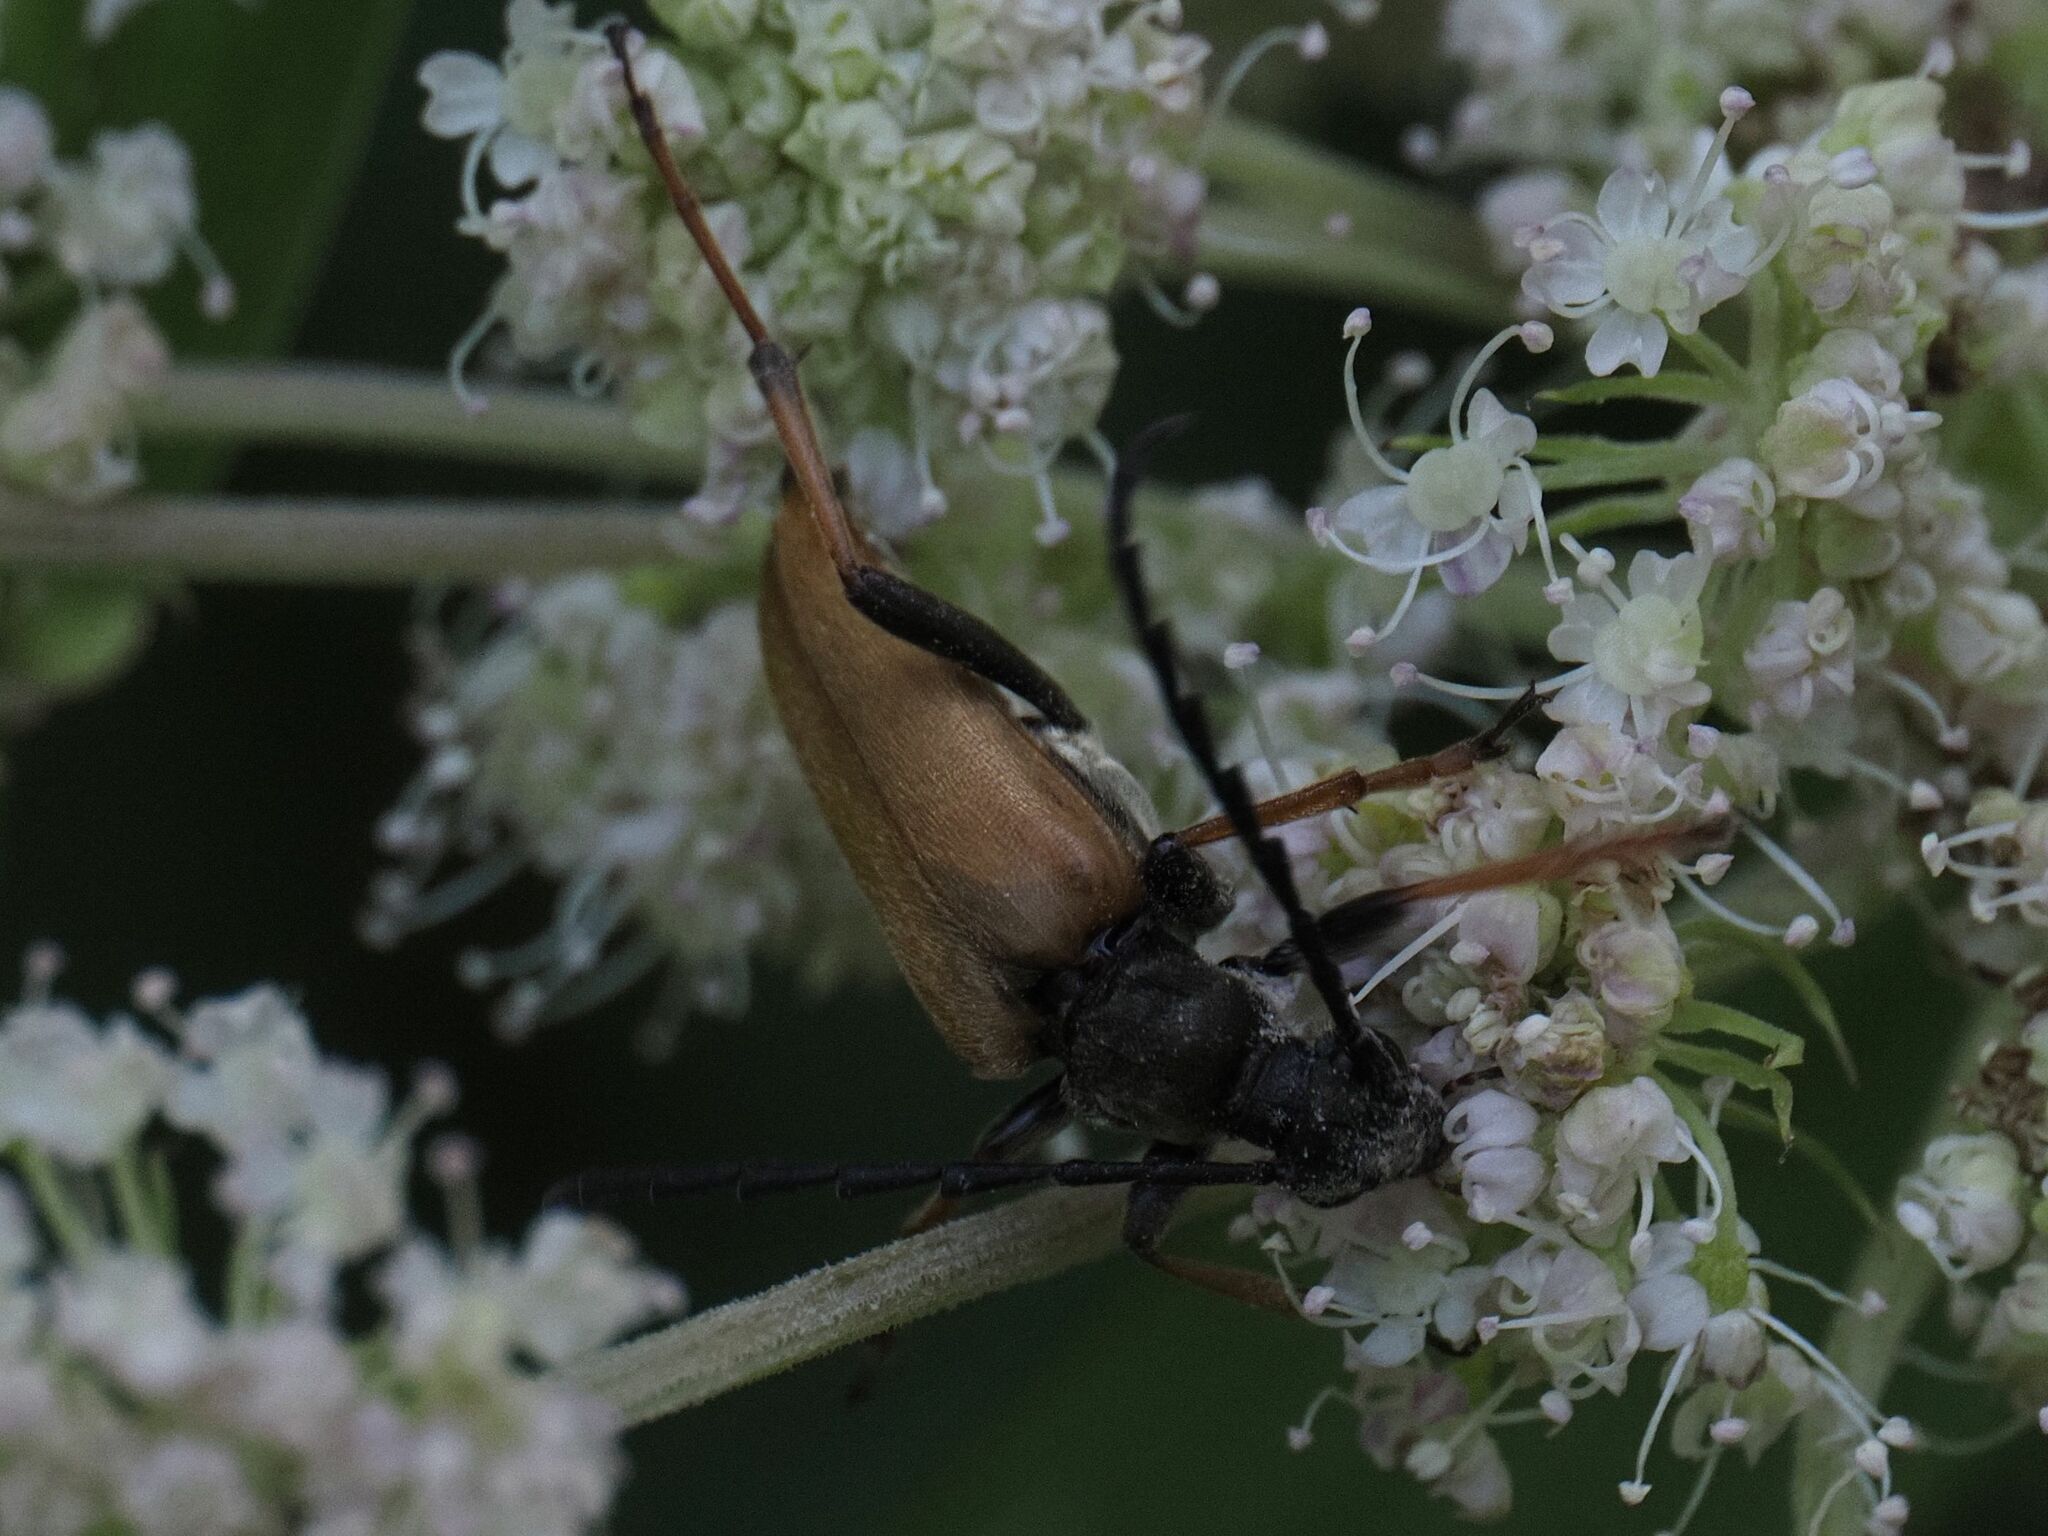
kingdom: Animalia
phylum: Arthropoda
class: Insecta
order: Coleoptera
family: Cerambycidae
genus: Stictoleptura
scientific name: Stictoleptura rubra
